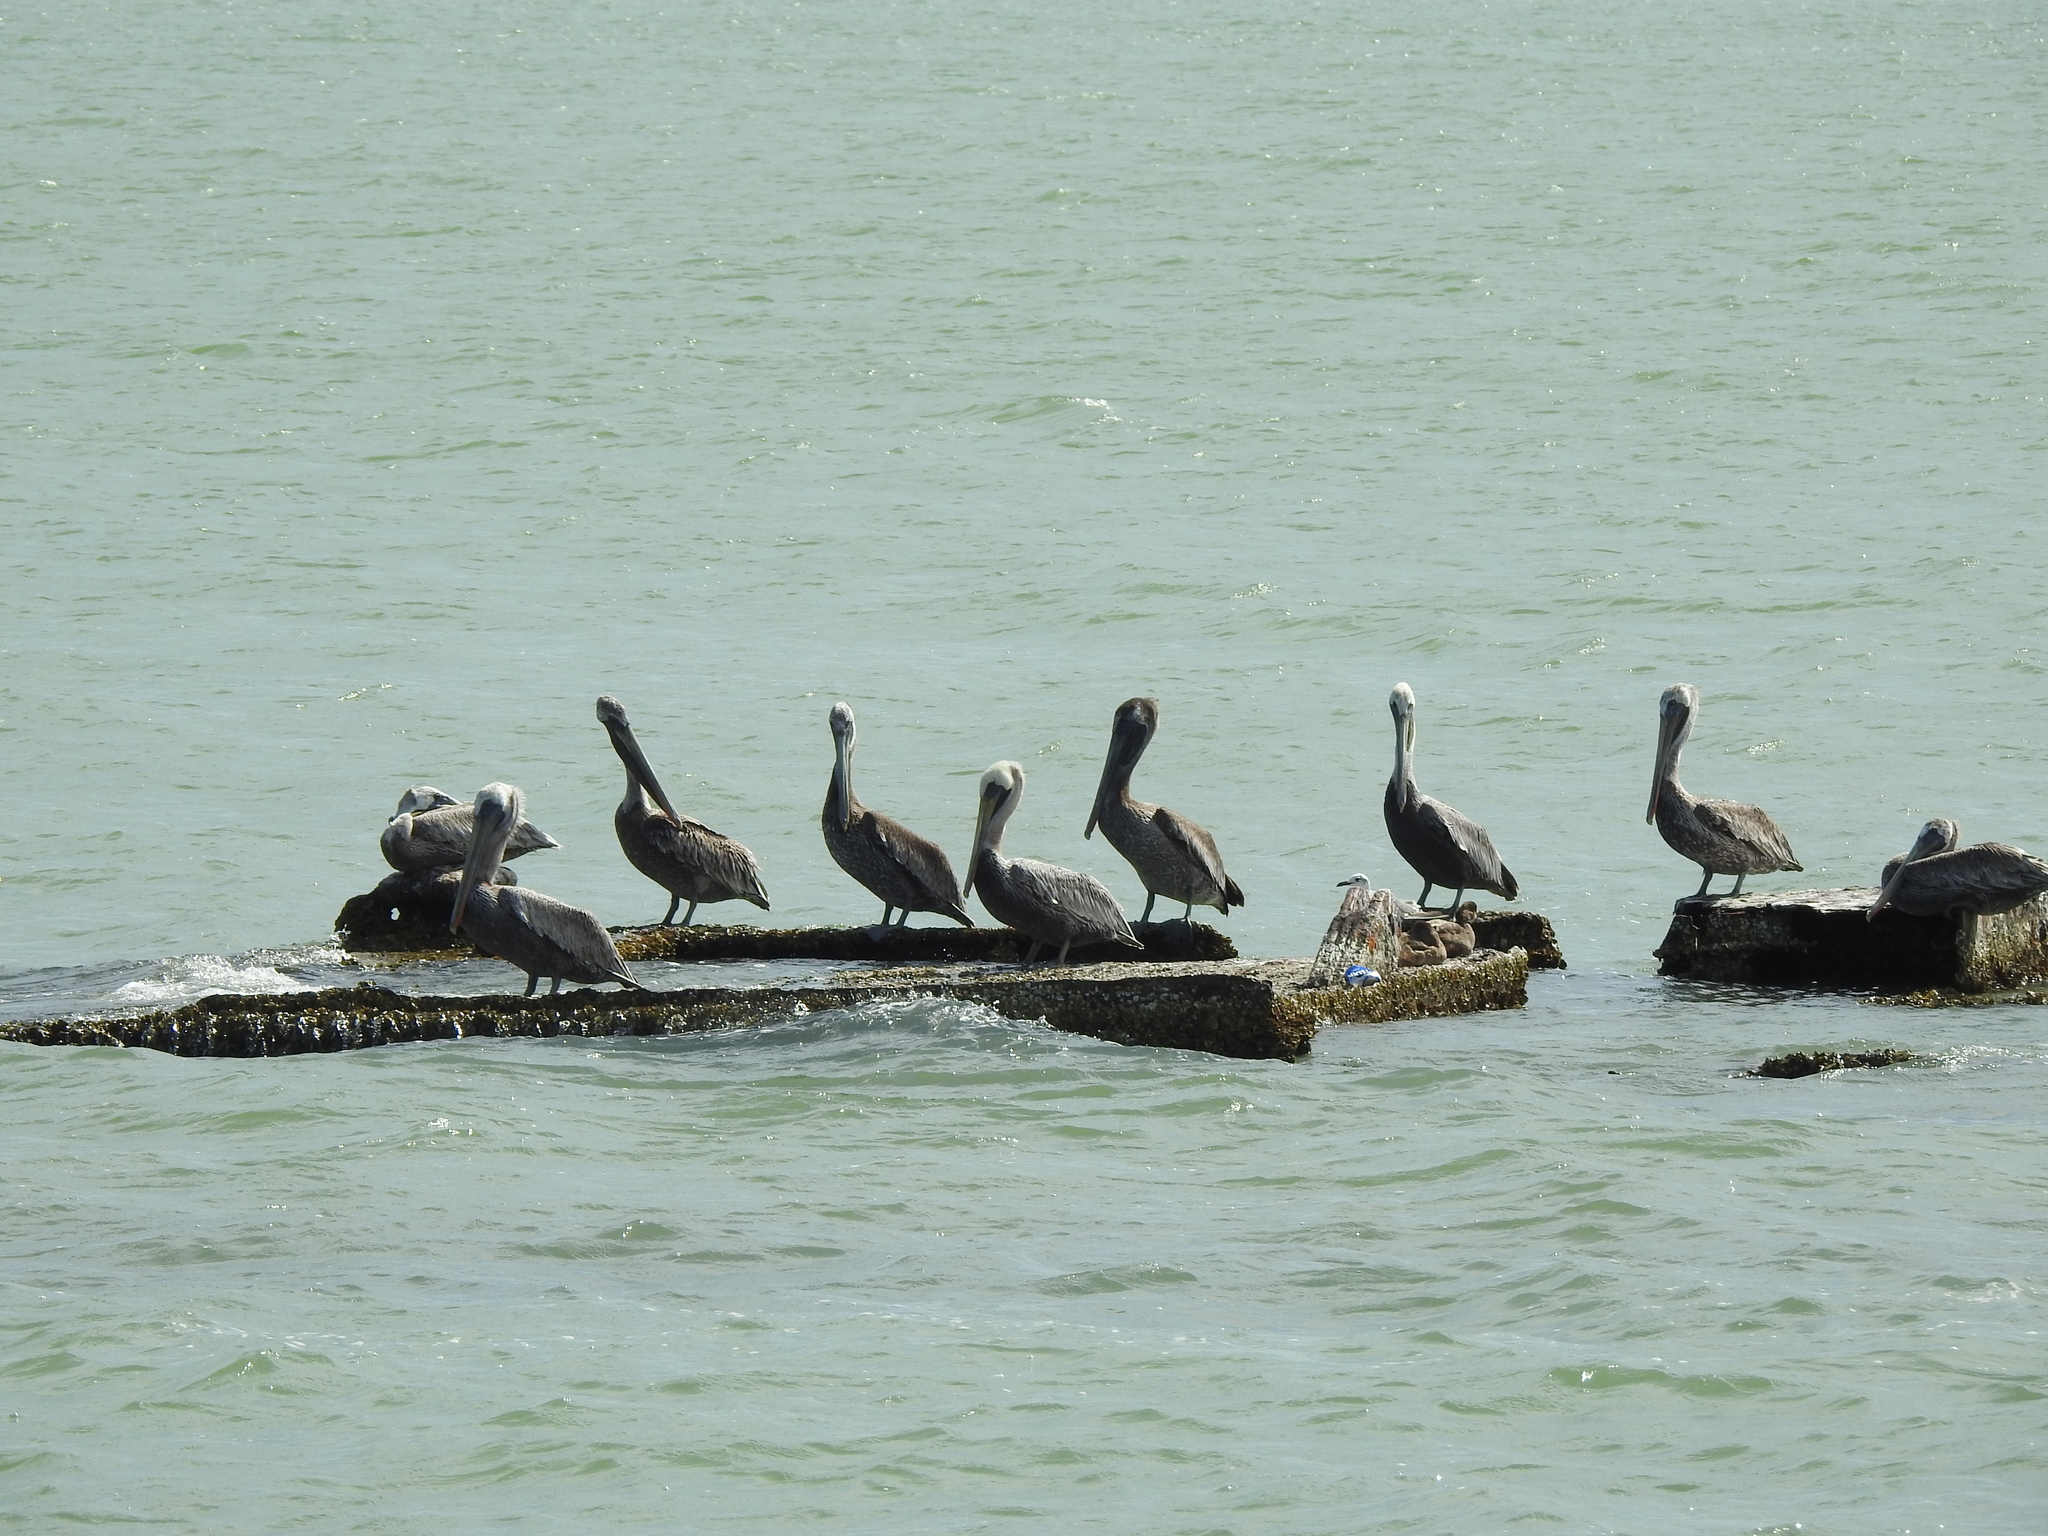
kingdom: Animalia
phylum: Chordata
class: Aves
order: Pelecaniformes
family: Pelecanidae
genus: Pelecanus
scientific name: Pelecanus occidentalis
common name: Brown pelican
